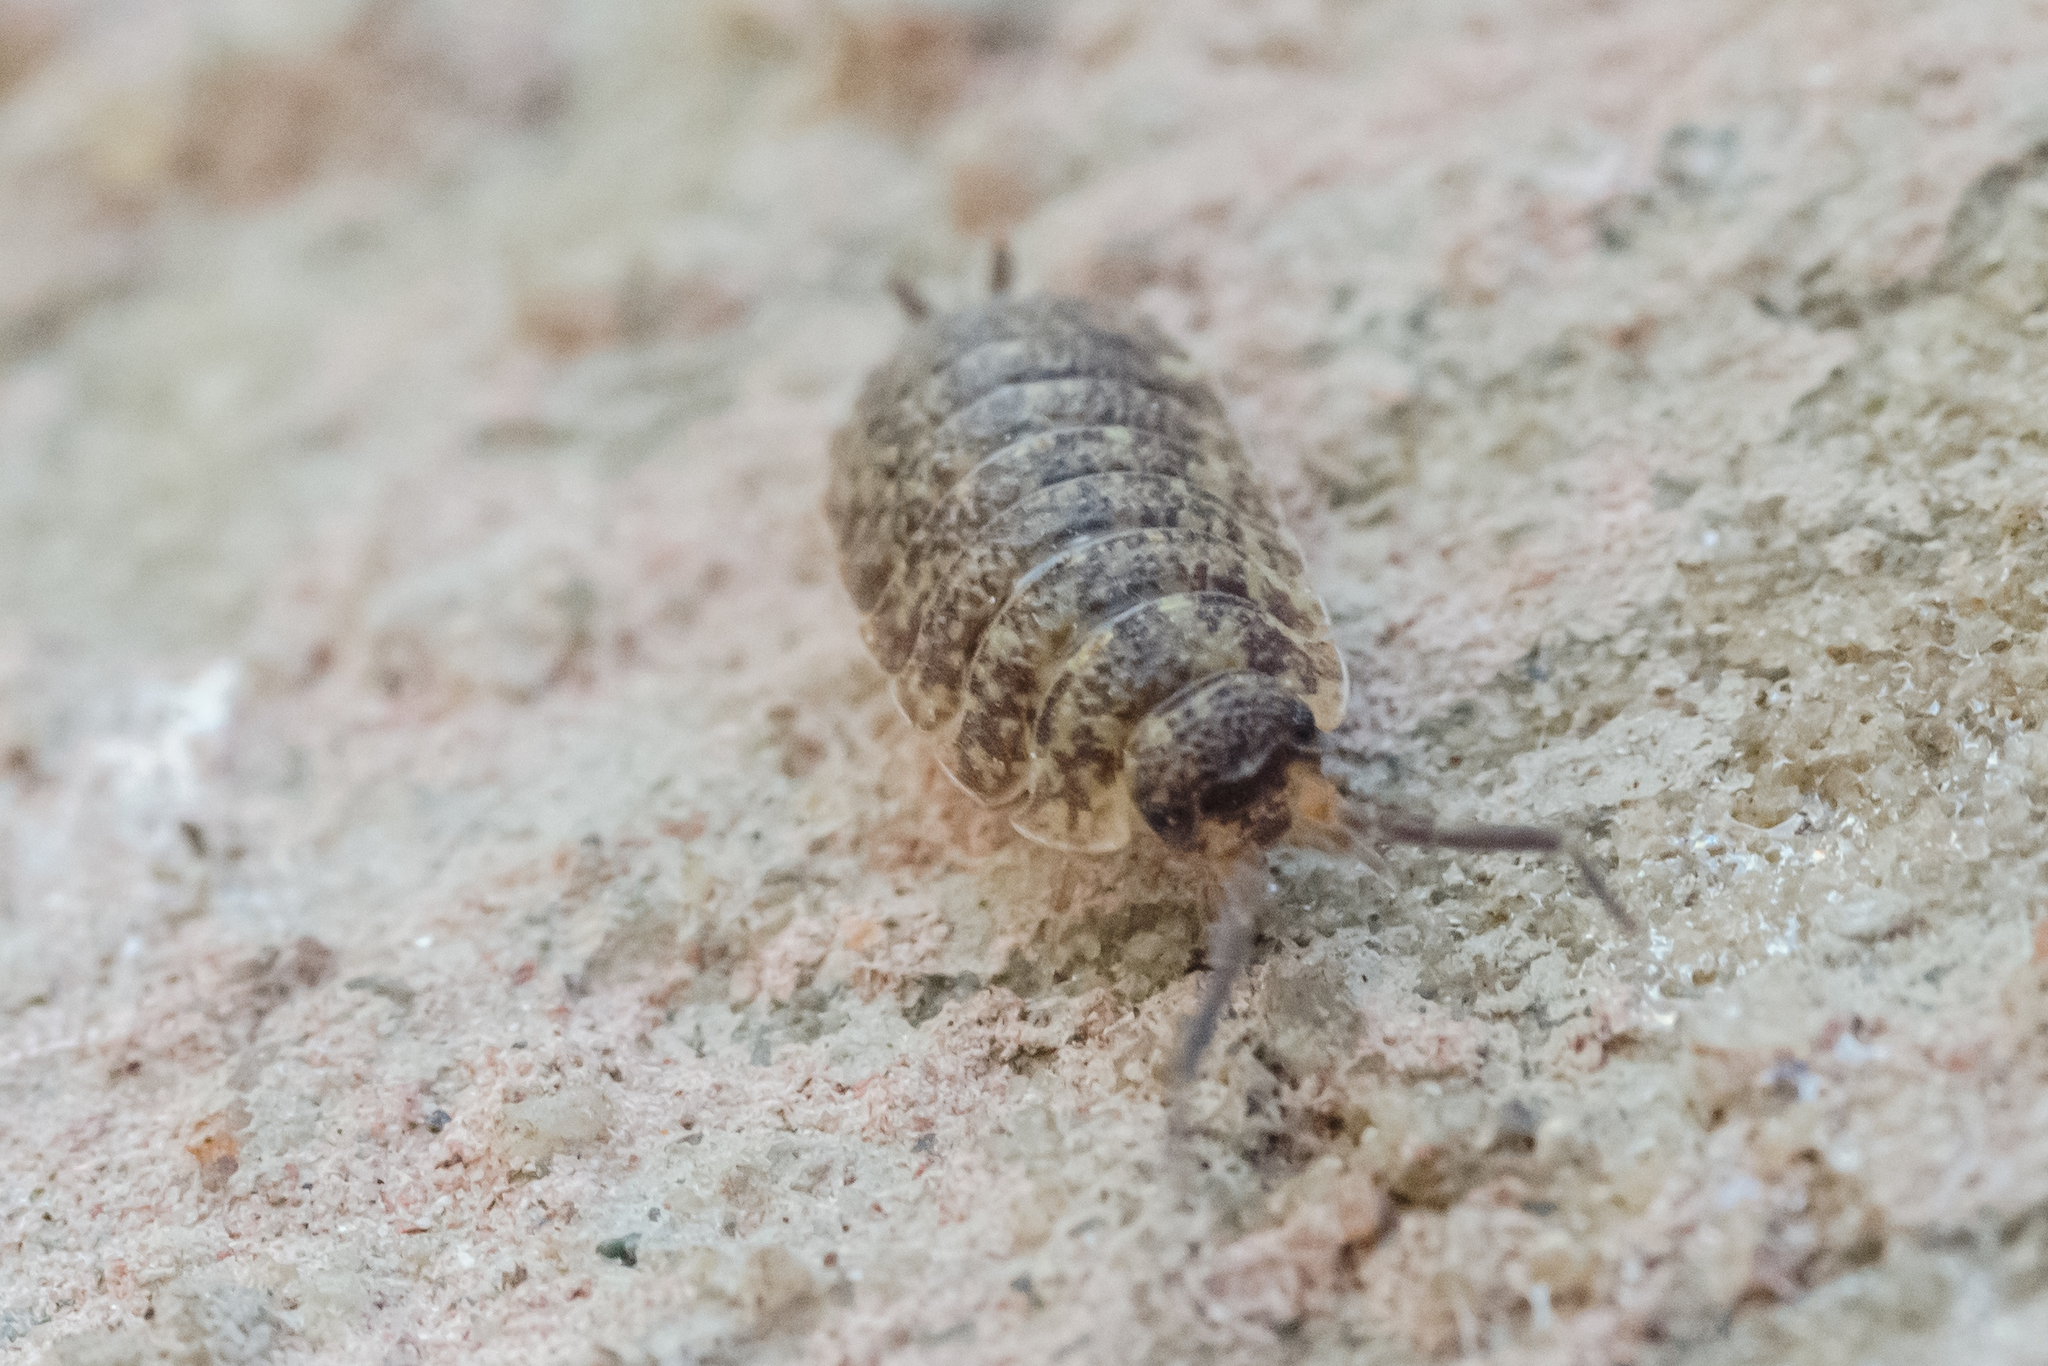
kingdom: Animalia
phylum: Arthropoda
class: Malacostraca
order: Isopoda
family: Porcellionidae
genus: Porcellio
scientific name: Porcellio scaber
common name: Common rough woodlouse
